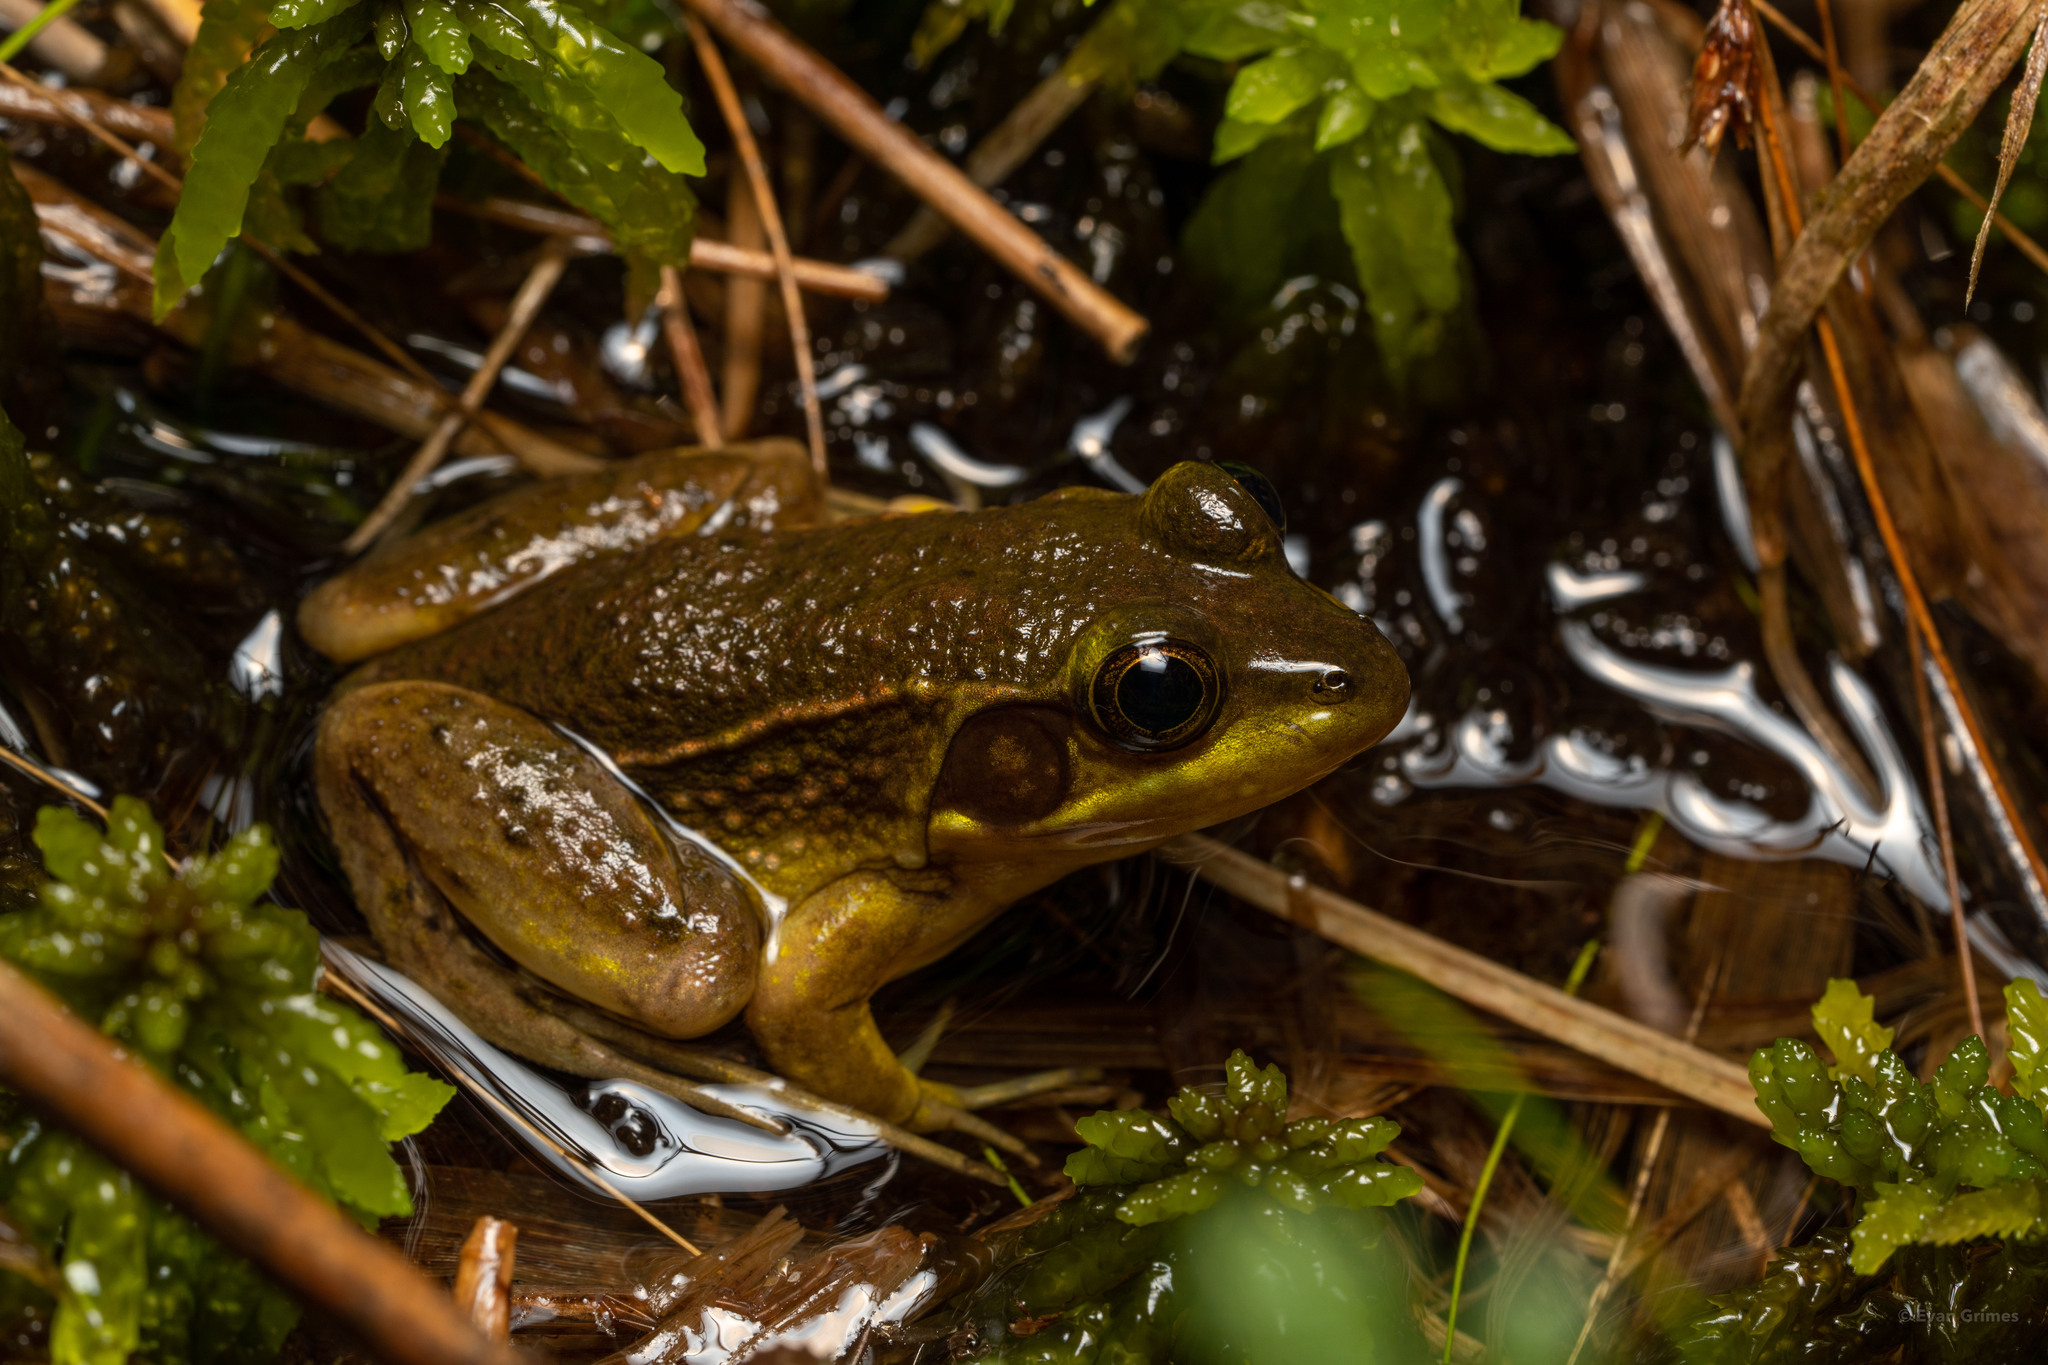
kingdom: Animalia
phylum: Chordata
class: Amphibia
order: Anura
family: Ranidae
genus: Lithobates
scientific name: Lithobates okaloosae
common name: Florida bog frog
